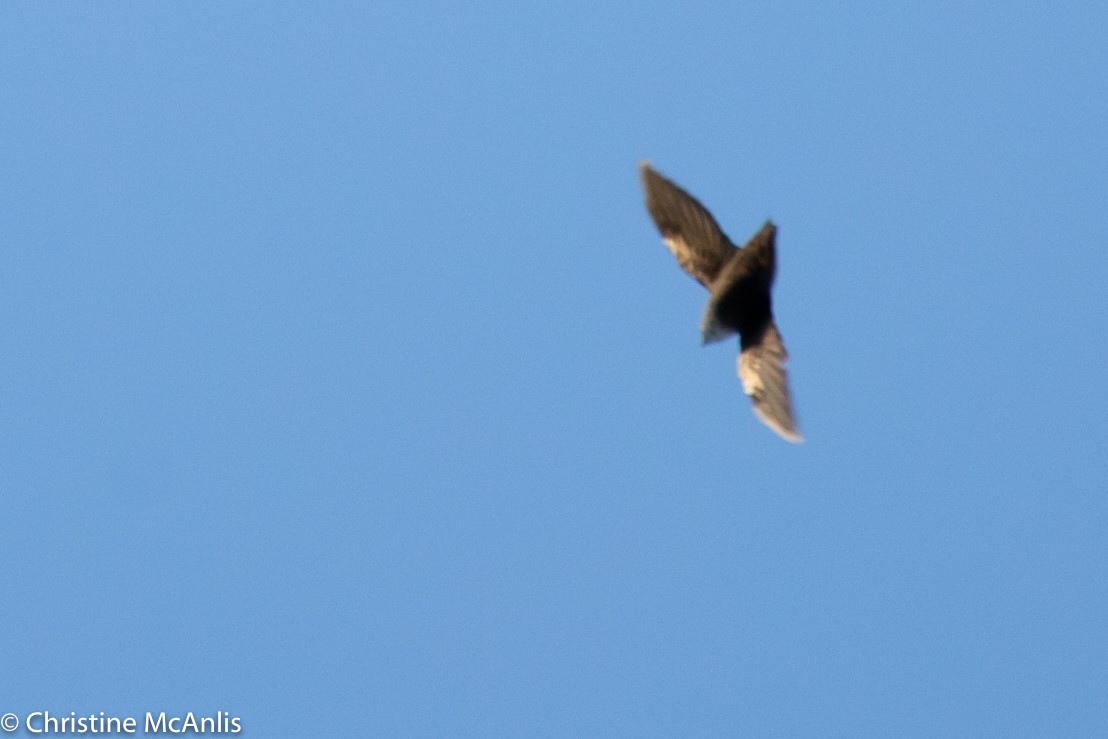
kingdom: Animalia
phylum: Chordata
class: Aves
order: Apodiformes
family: Apodidae
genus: Chaetura
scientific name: Chaetura pelagica
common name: Chimney swift
